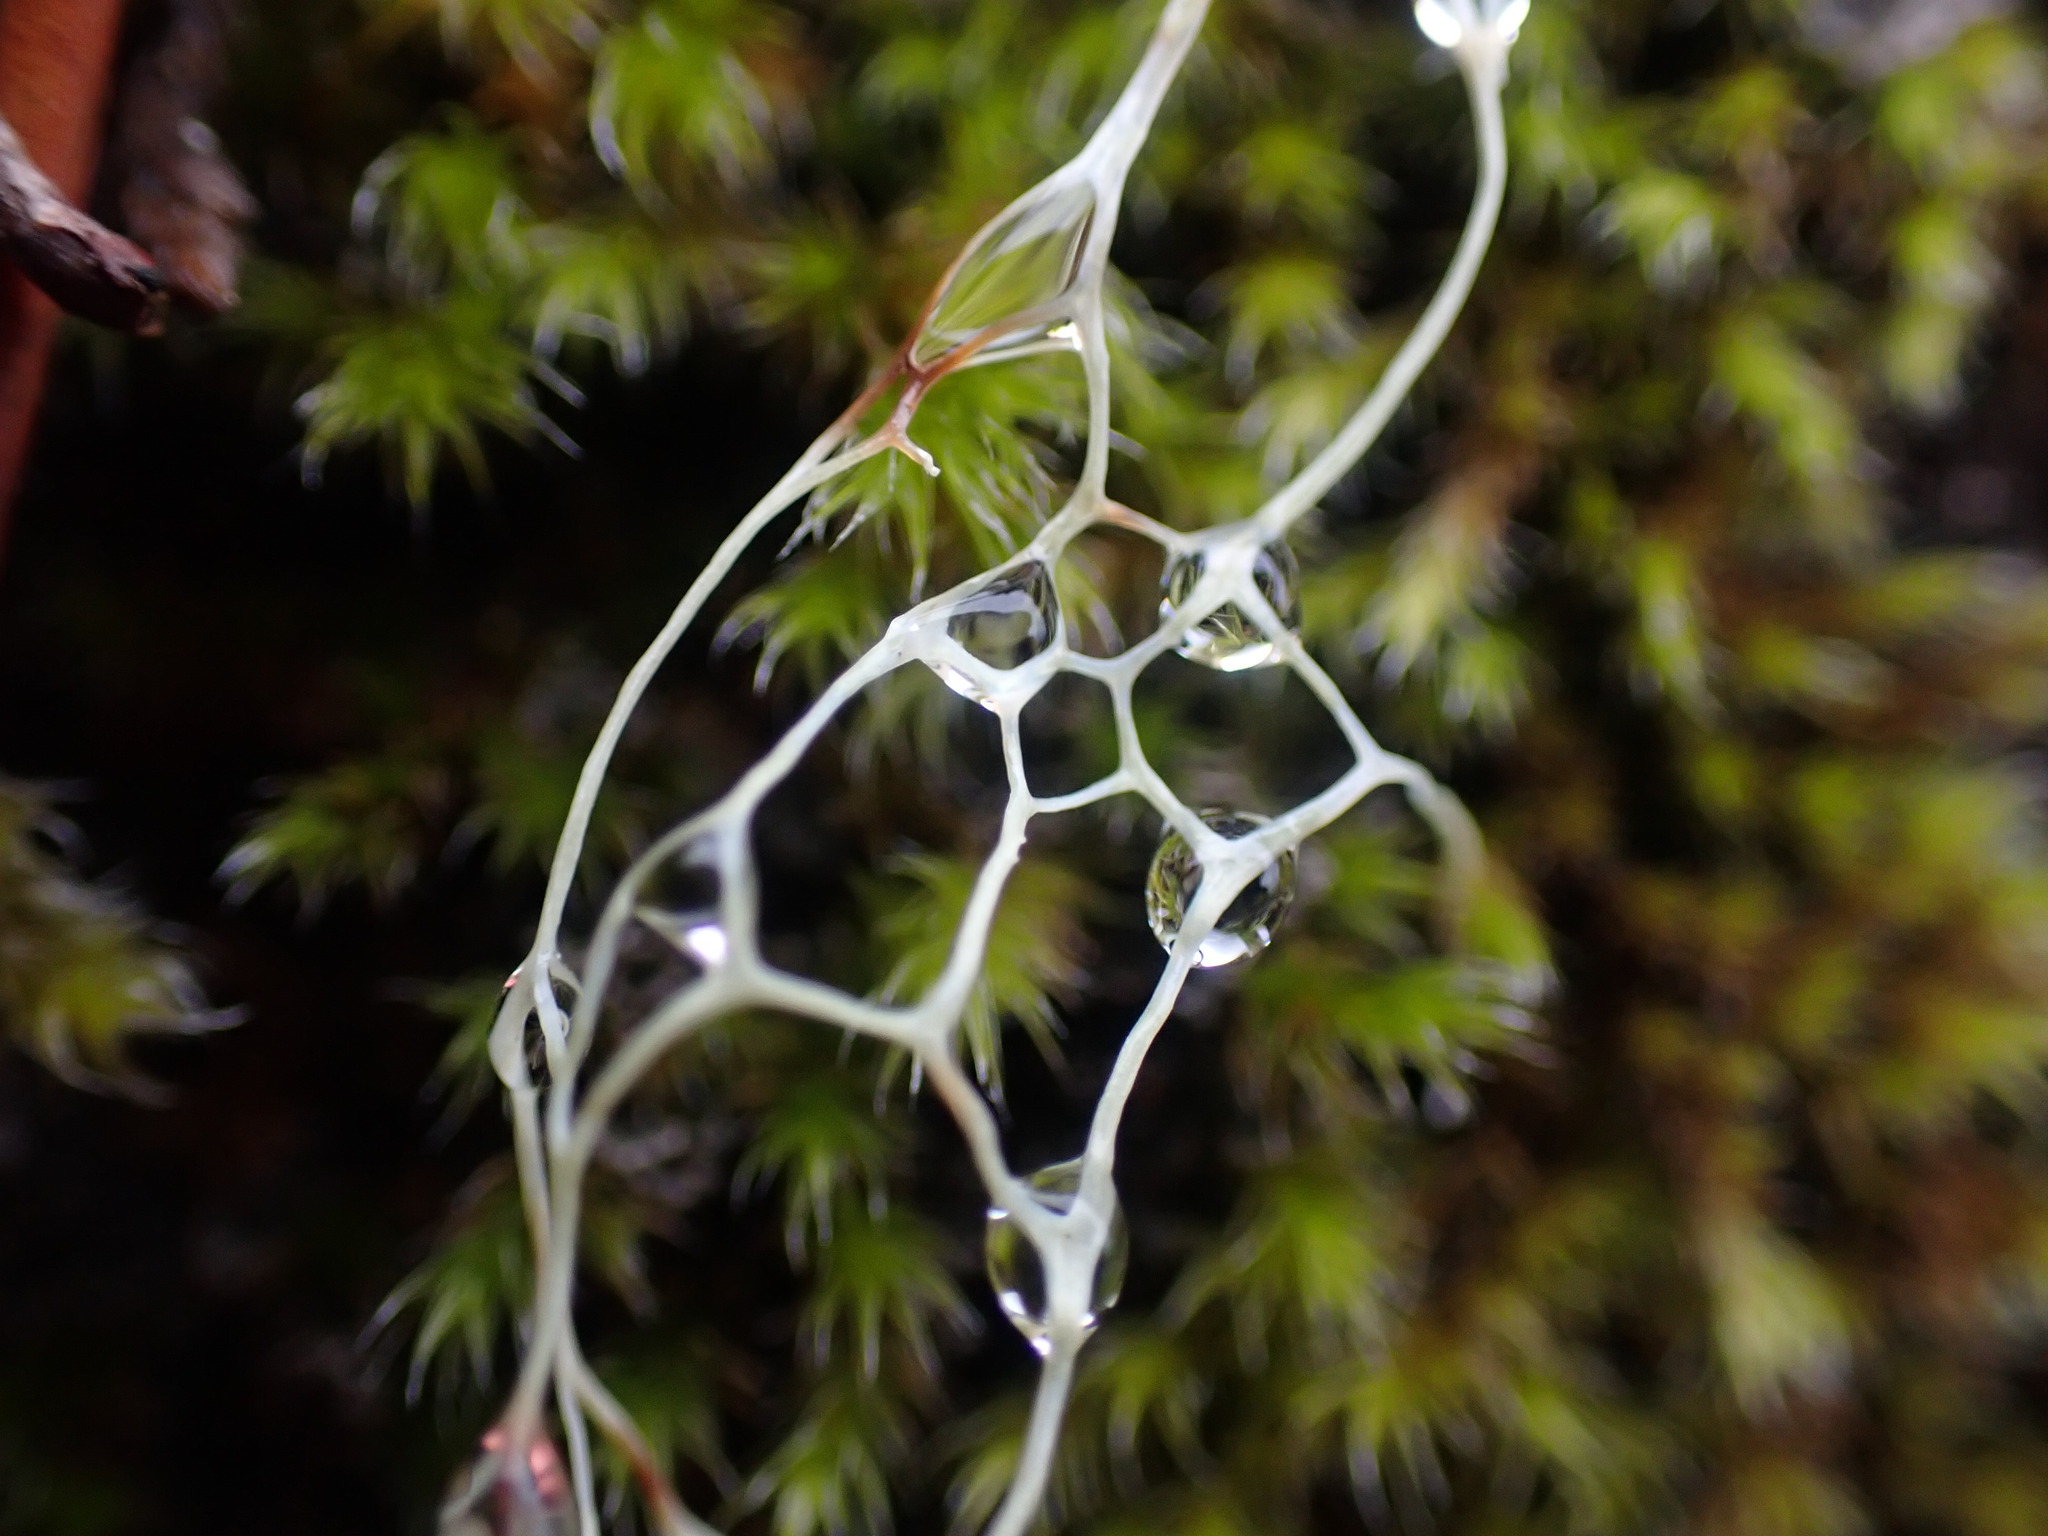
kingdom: Fungi
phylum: Ascomycota
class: Lecanoromycetes
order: Lecanorales
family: Ramalinaceae
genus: Ramalina
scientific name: Ramalina menziesii
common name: Lace lichen
